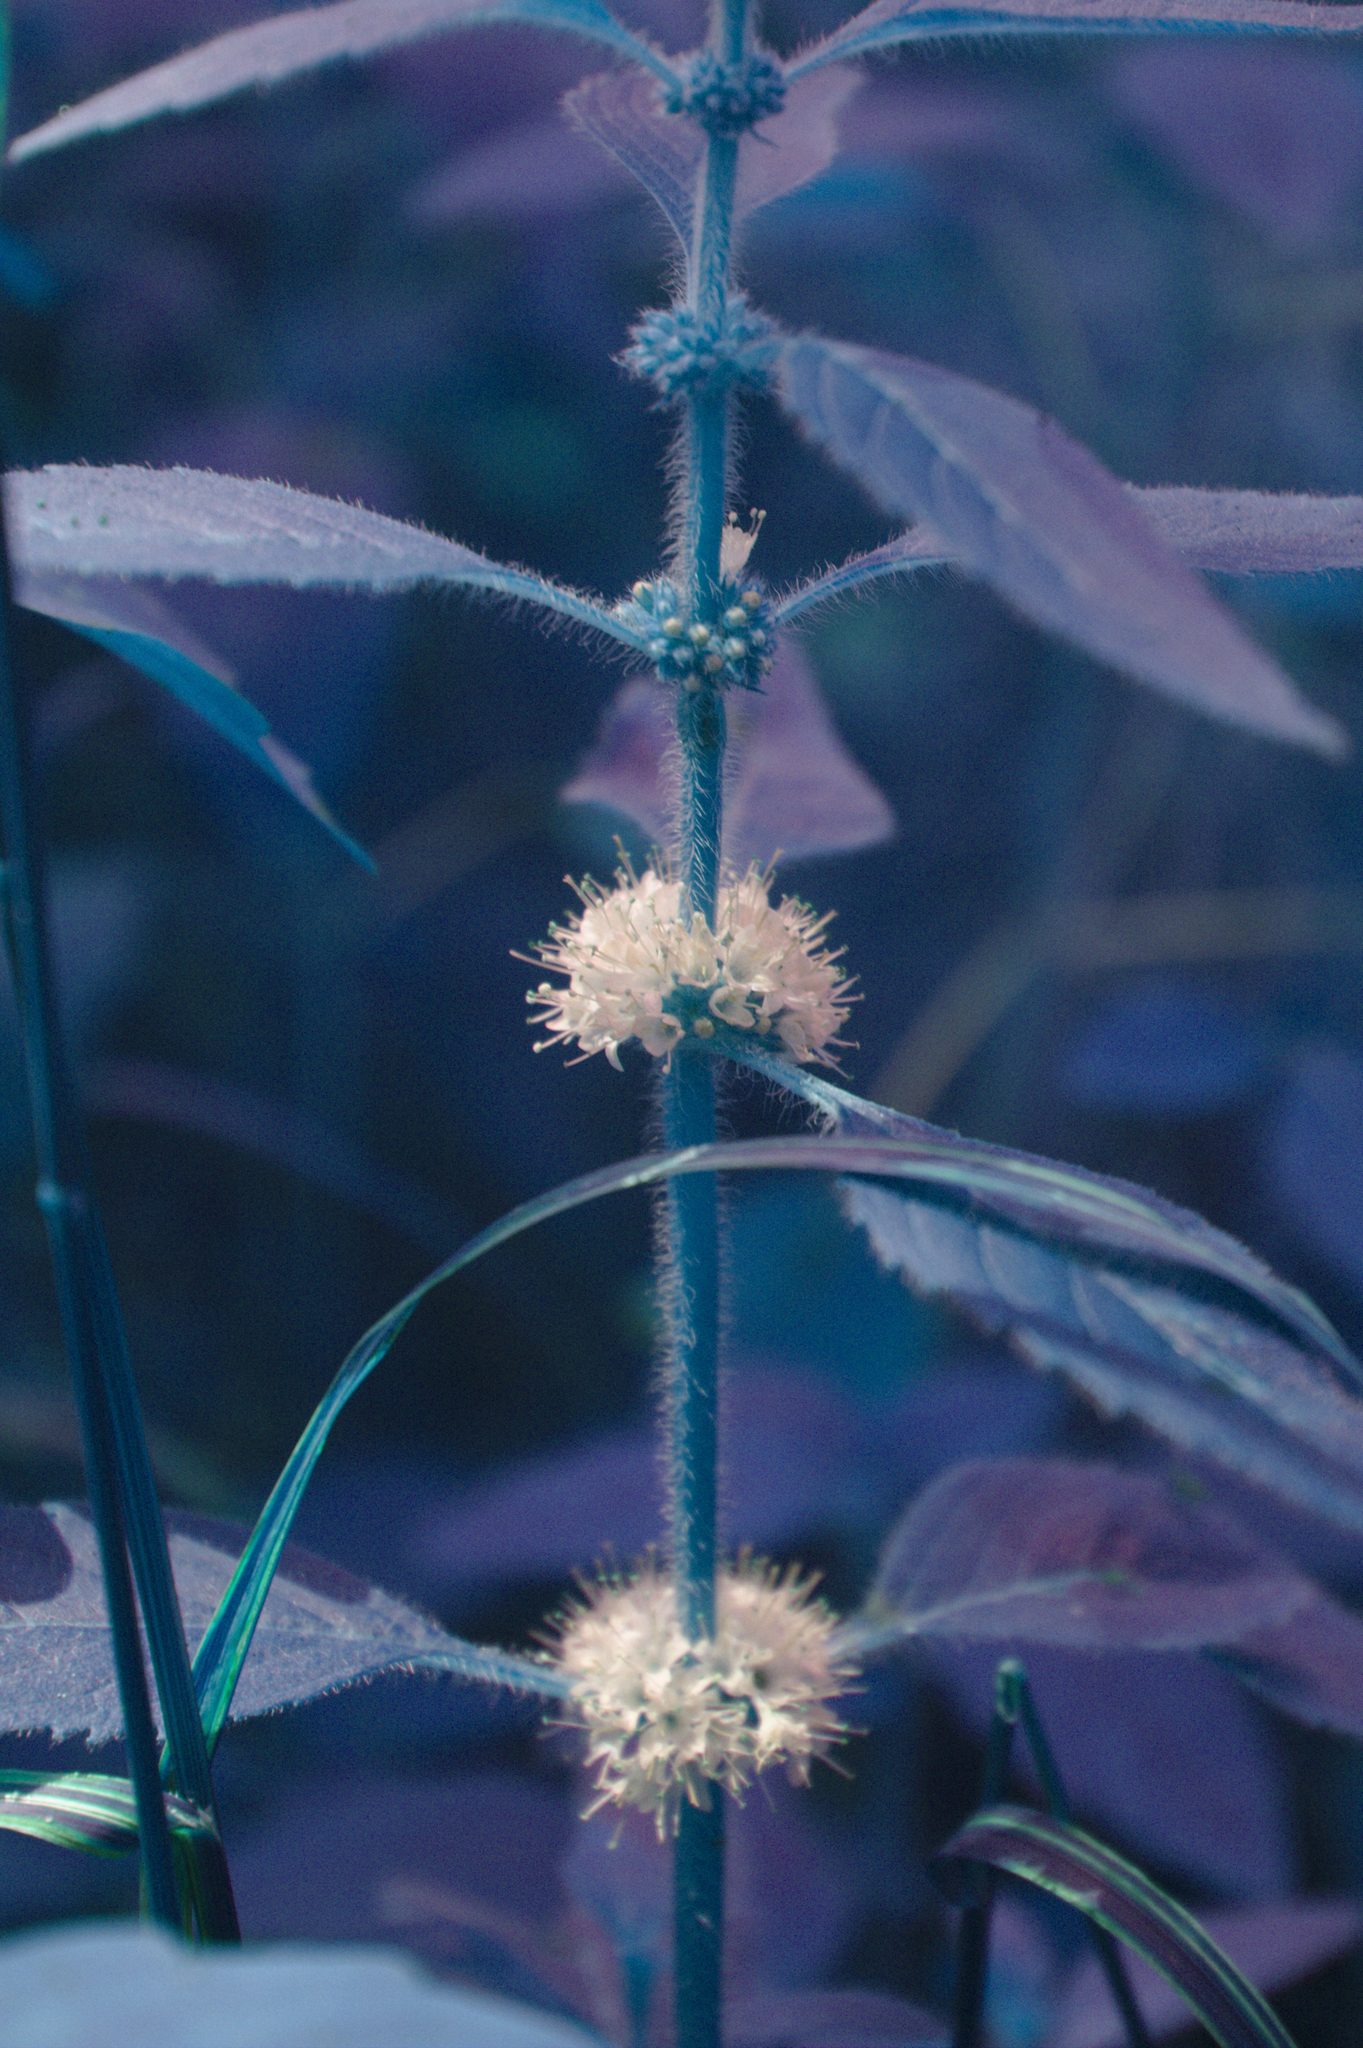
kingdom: Plantae
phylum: Tracheophyta
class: Magnoliopsida
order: Lamiales
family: Lamiaceae
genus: Mentha
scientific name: Mentha canadensis
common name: American corn mint
